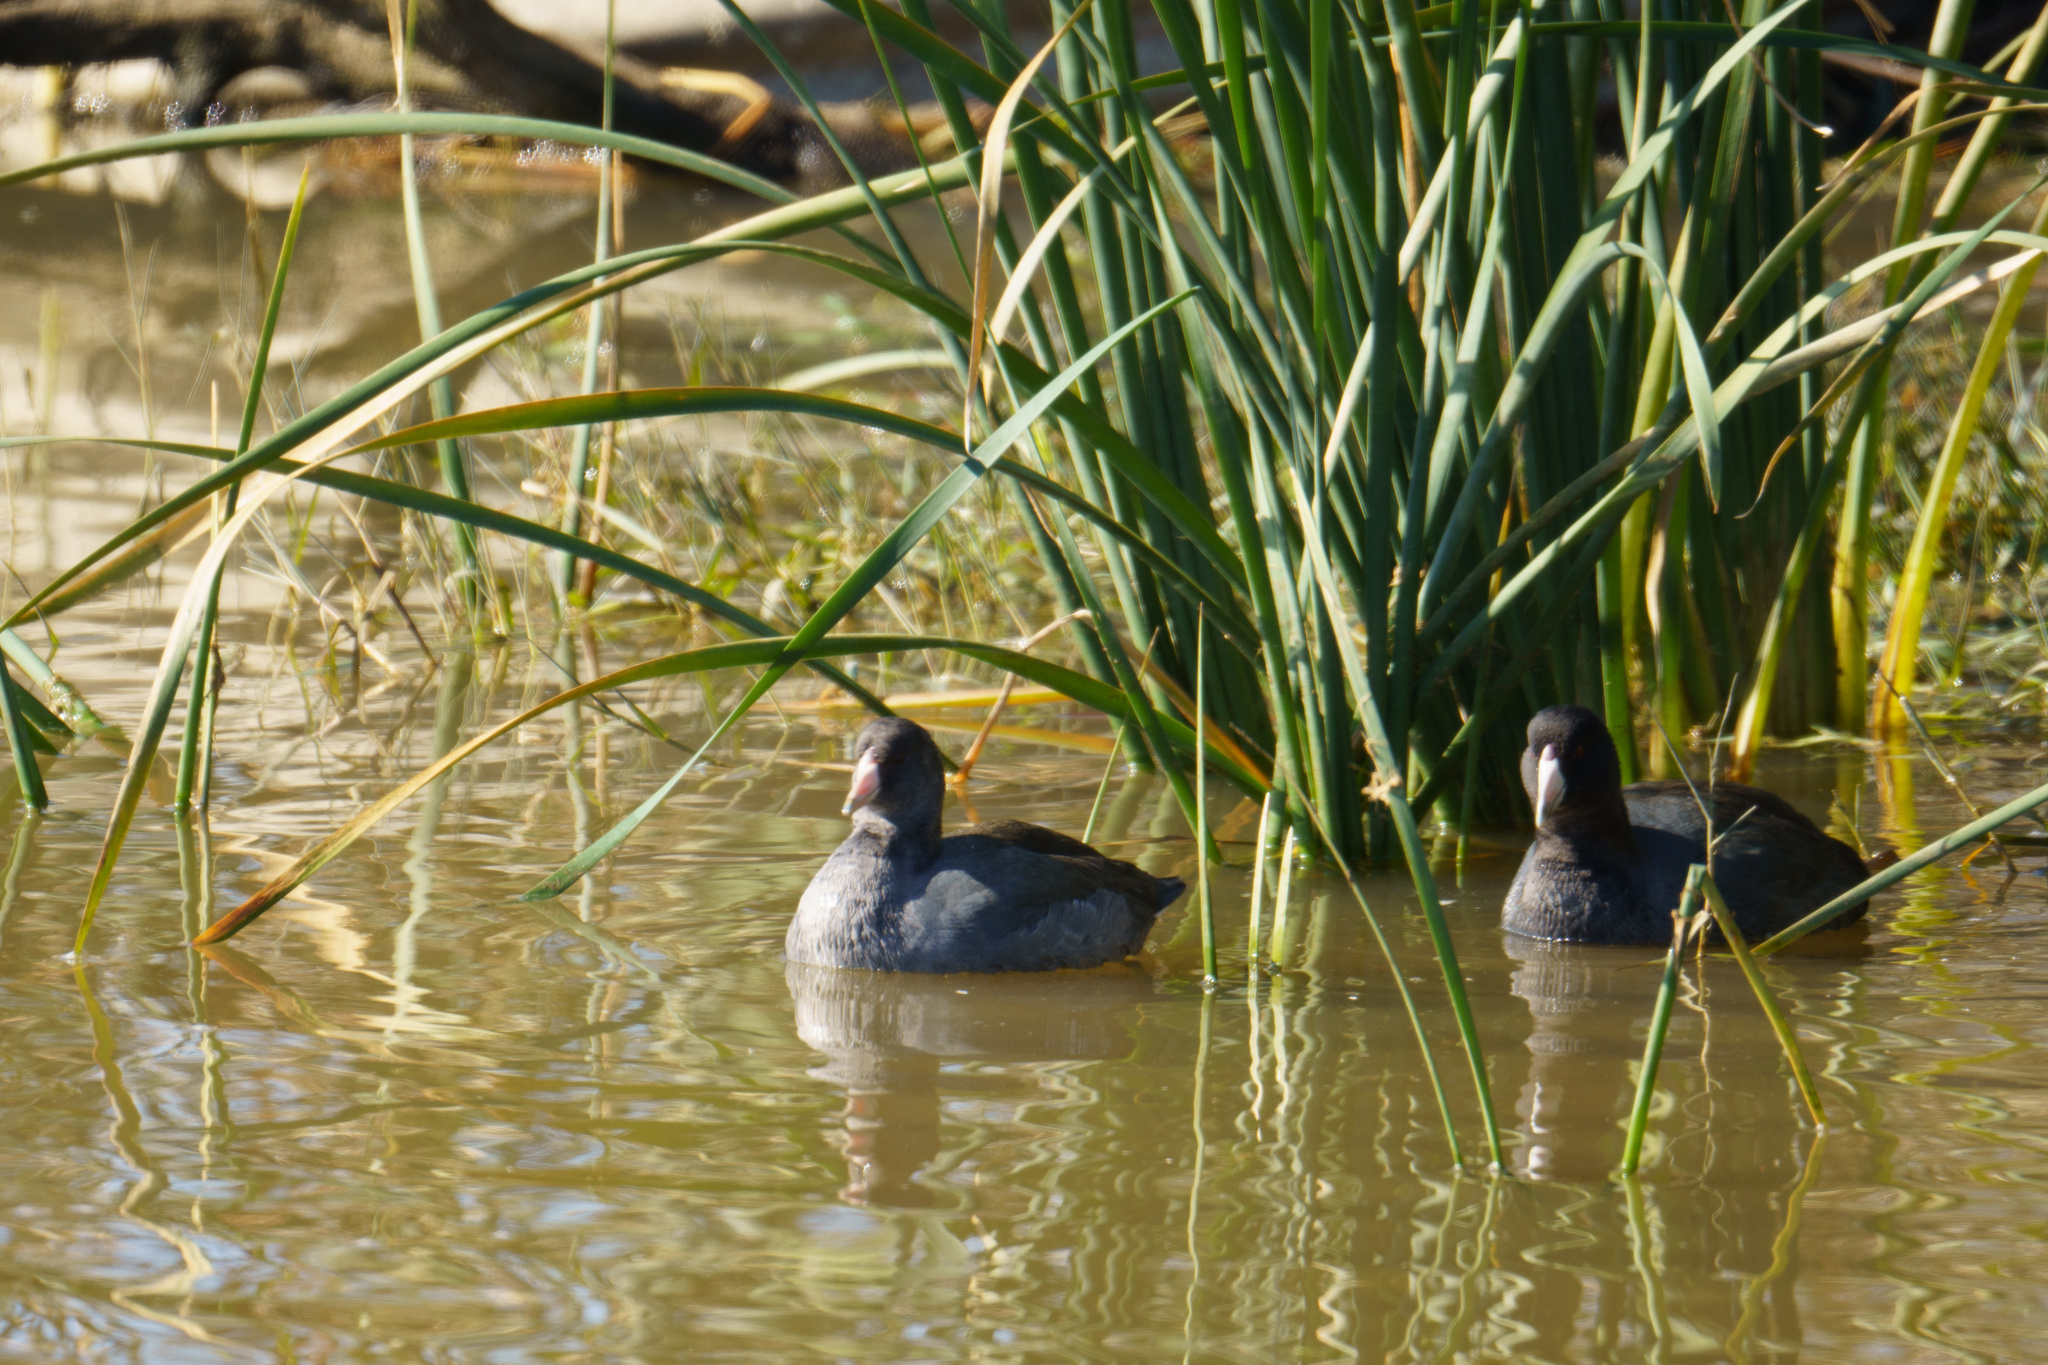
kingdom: Animalia
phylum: Chordata
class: Aves
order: Gruiformes
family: Rallidae
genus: Fulica
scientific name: Fulica americana
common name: American coot
